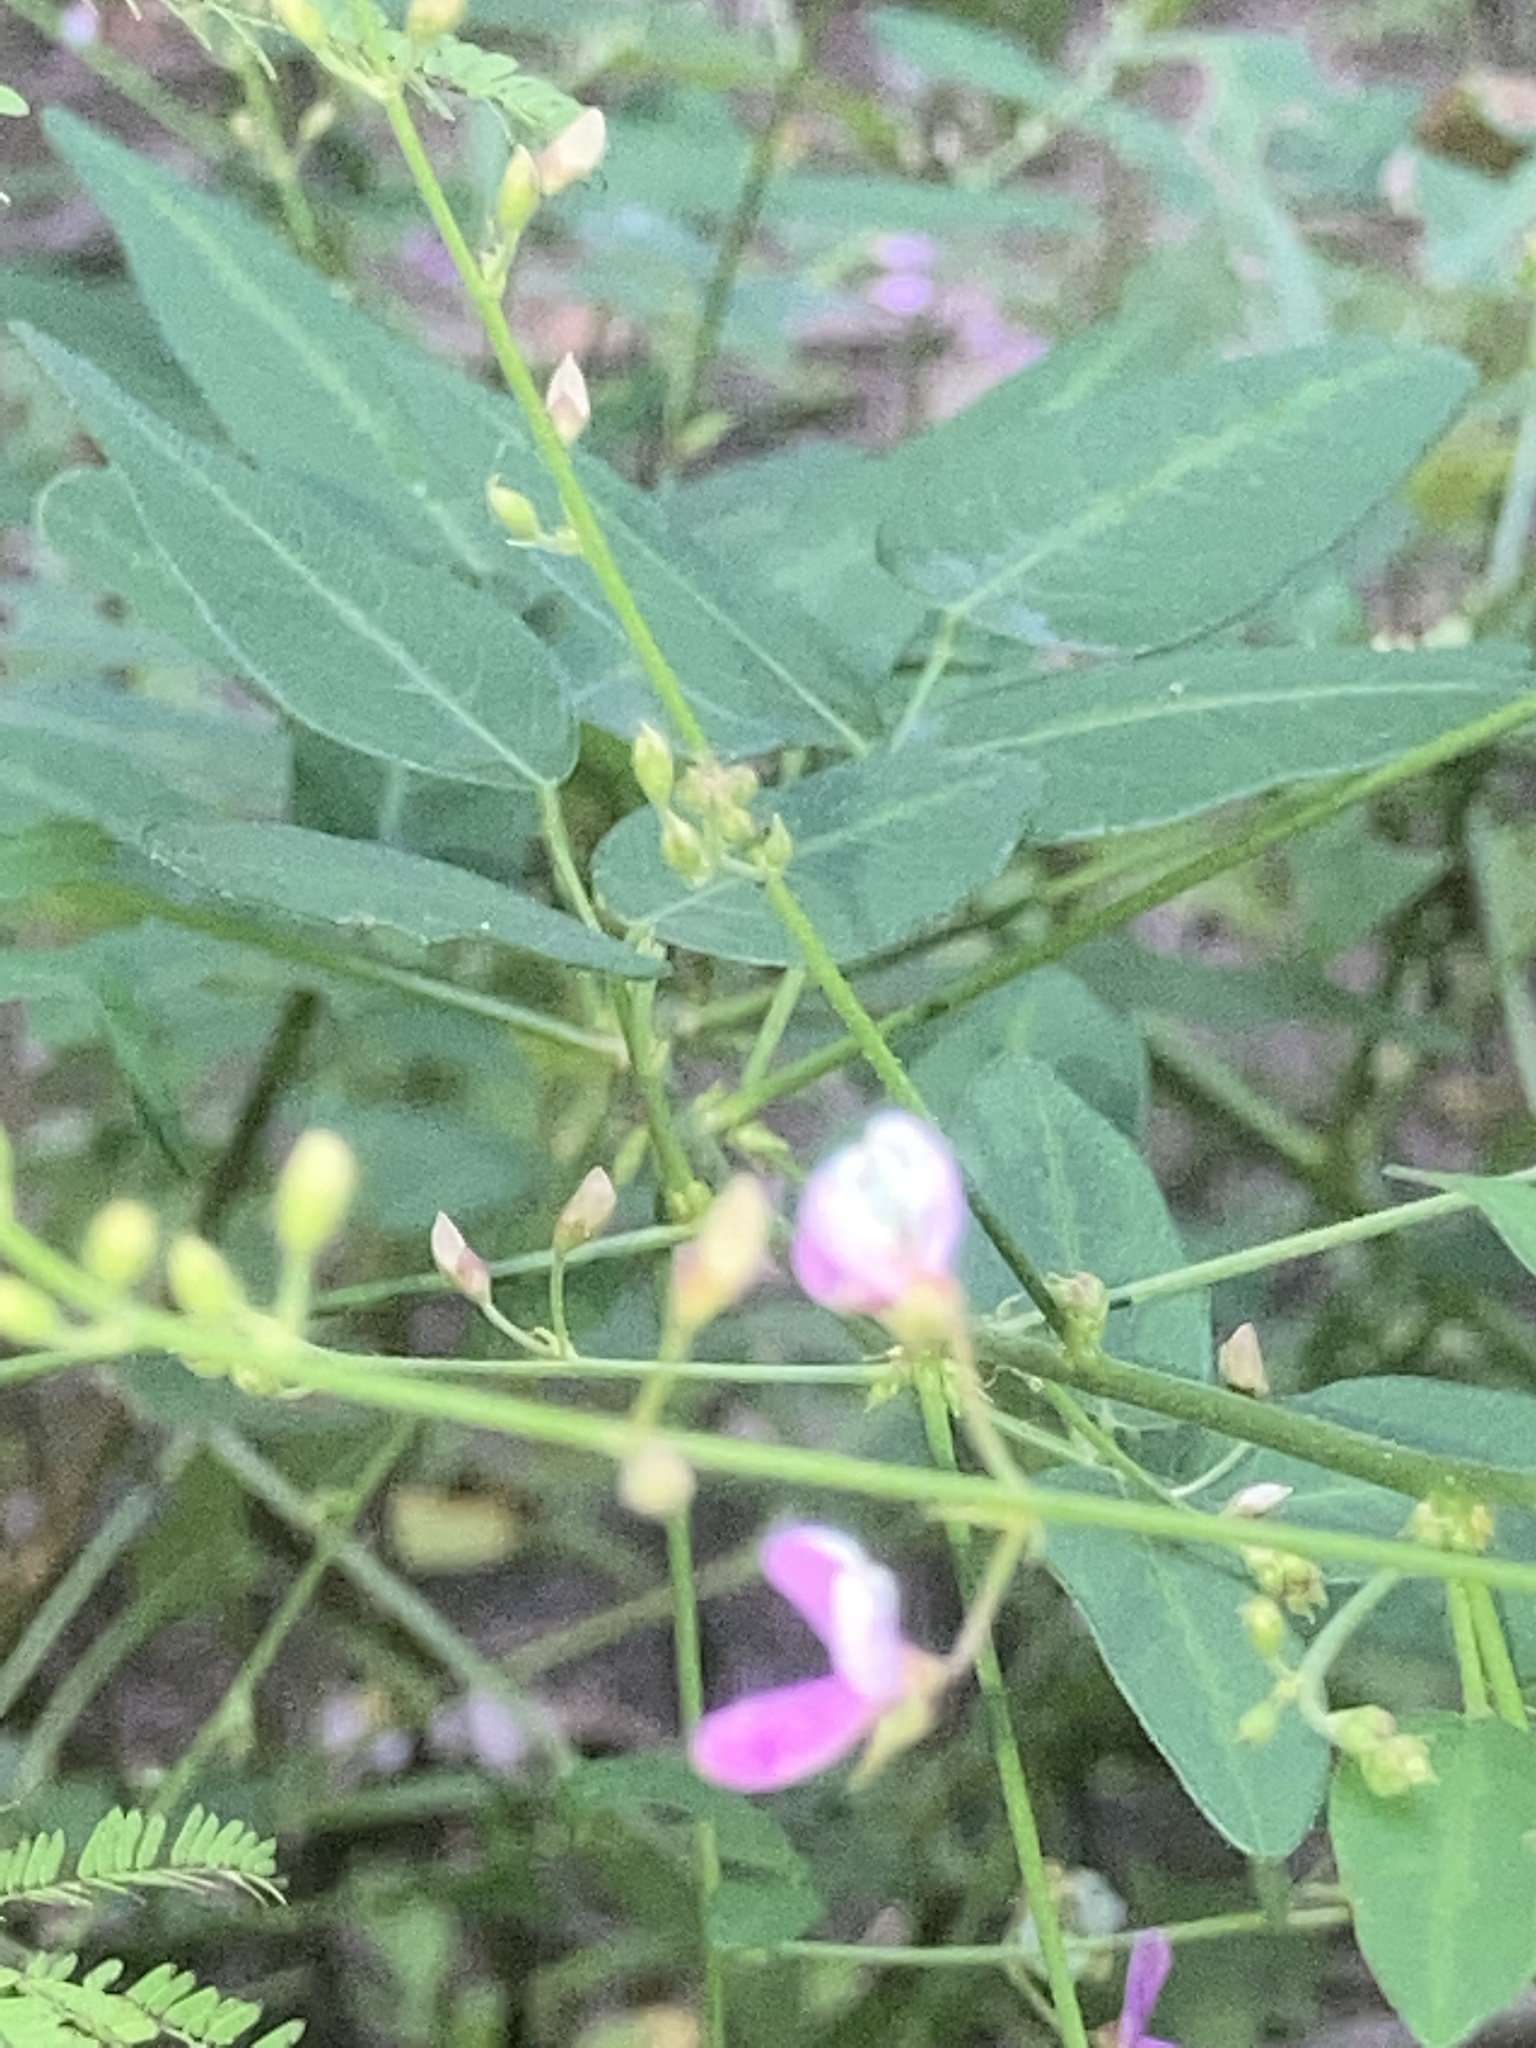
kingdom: Plantae
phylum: Tracheophyta
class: Magnoliopsida
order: Fabales
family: Fabaceae
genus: Desmodium
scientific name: Desmodium perplexum
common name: Perplexed tick trefoil
